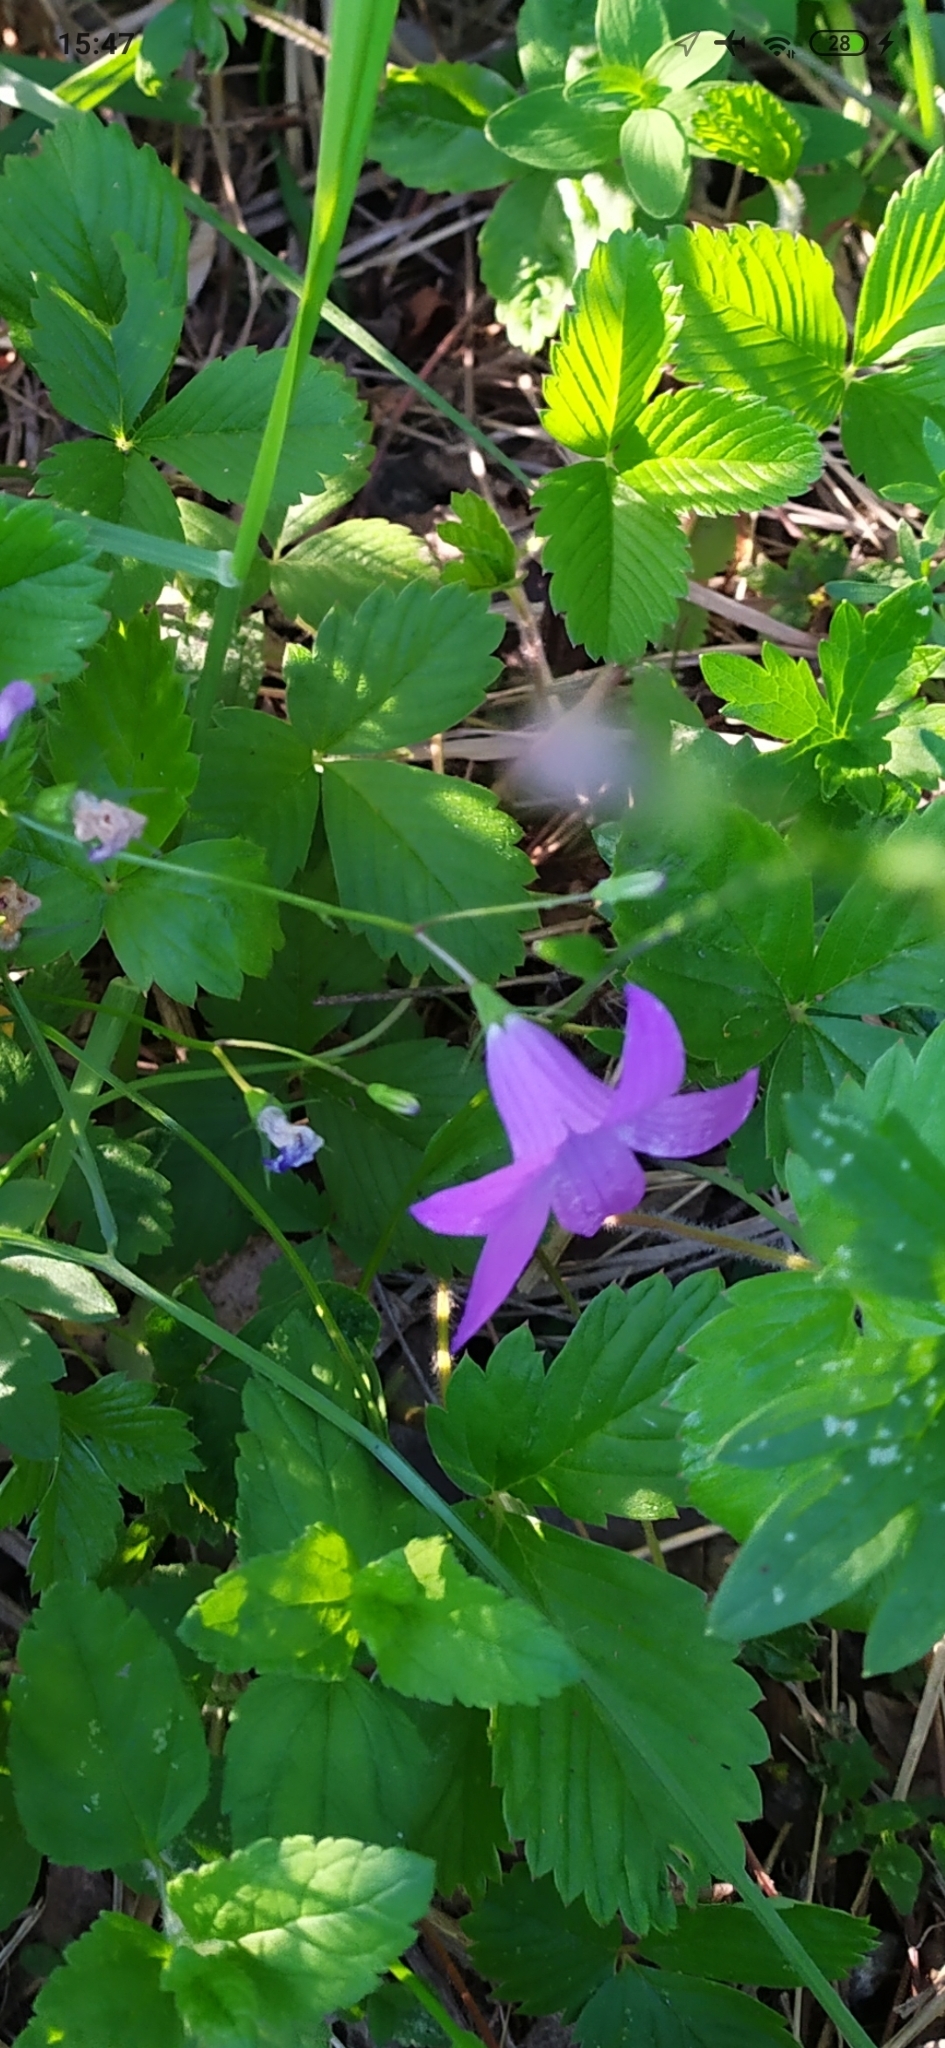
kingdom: Plantae
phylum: Tracheophyta
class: Magnoliopsida
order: Asterales
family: Campanulaceae
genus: Campanula
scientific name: Campanula patula
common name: Spreading bellflower
